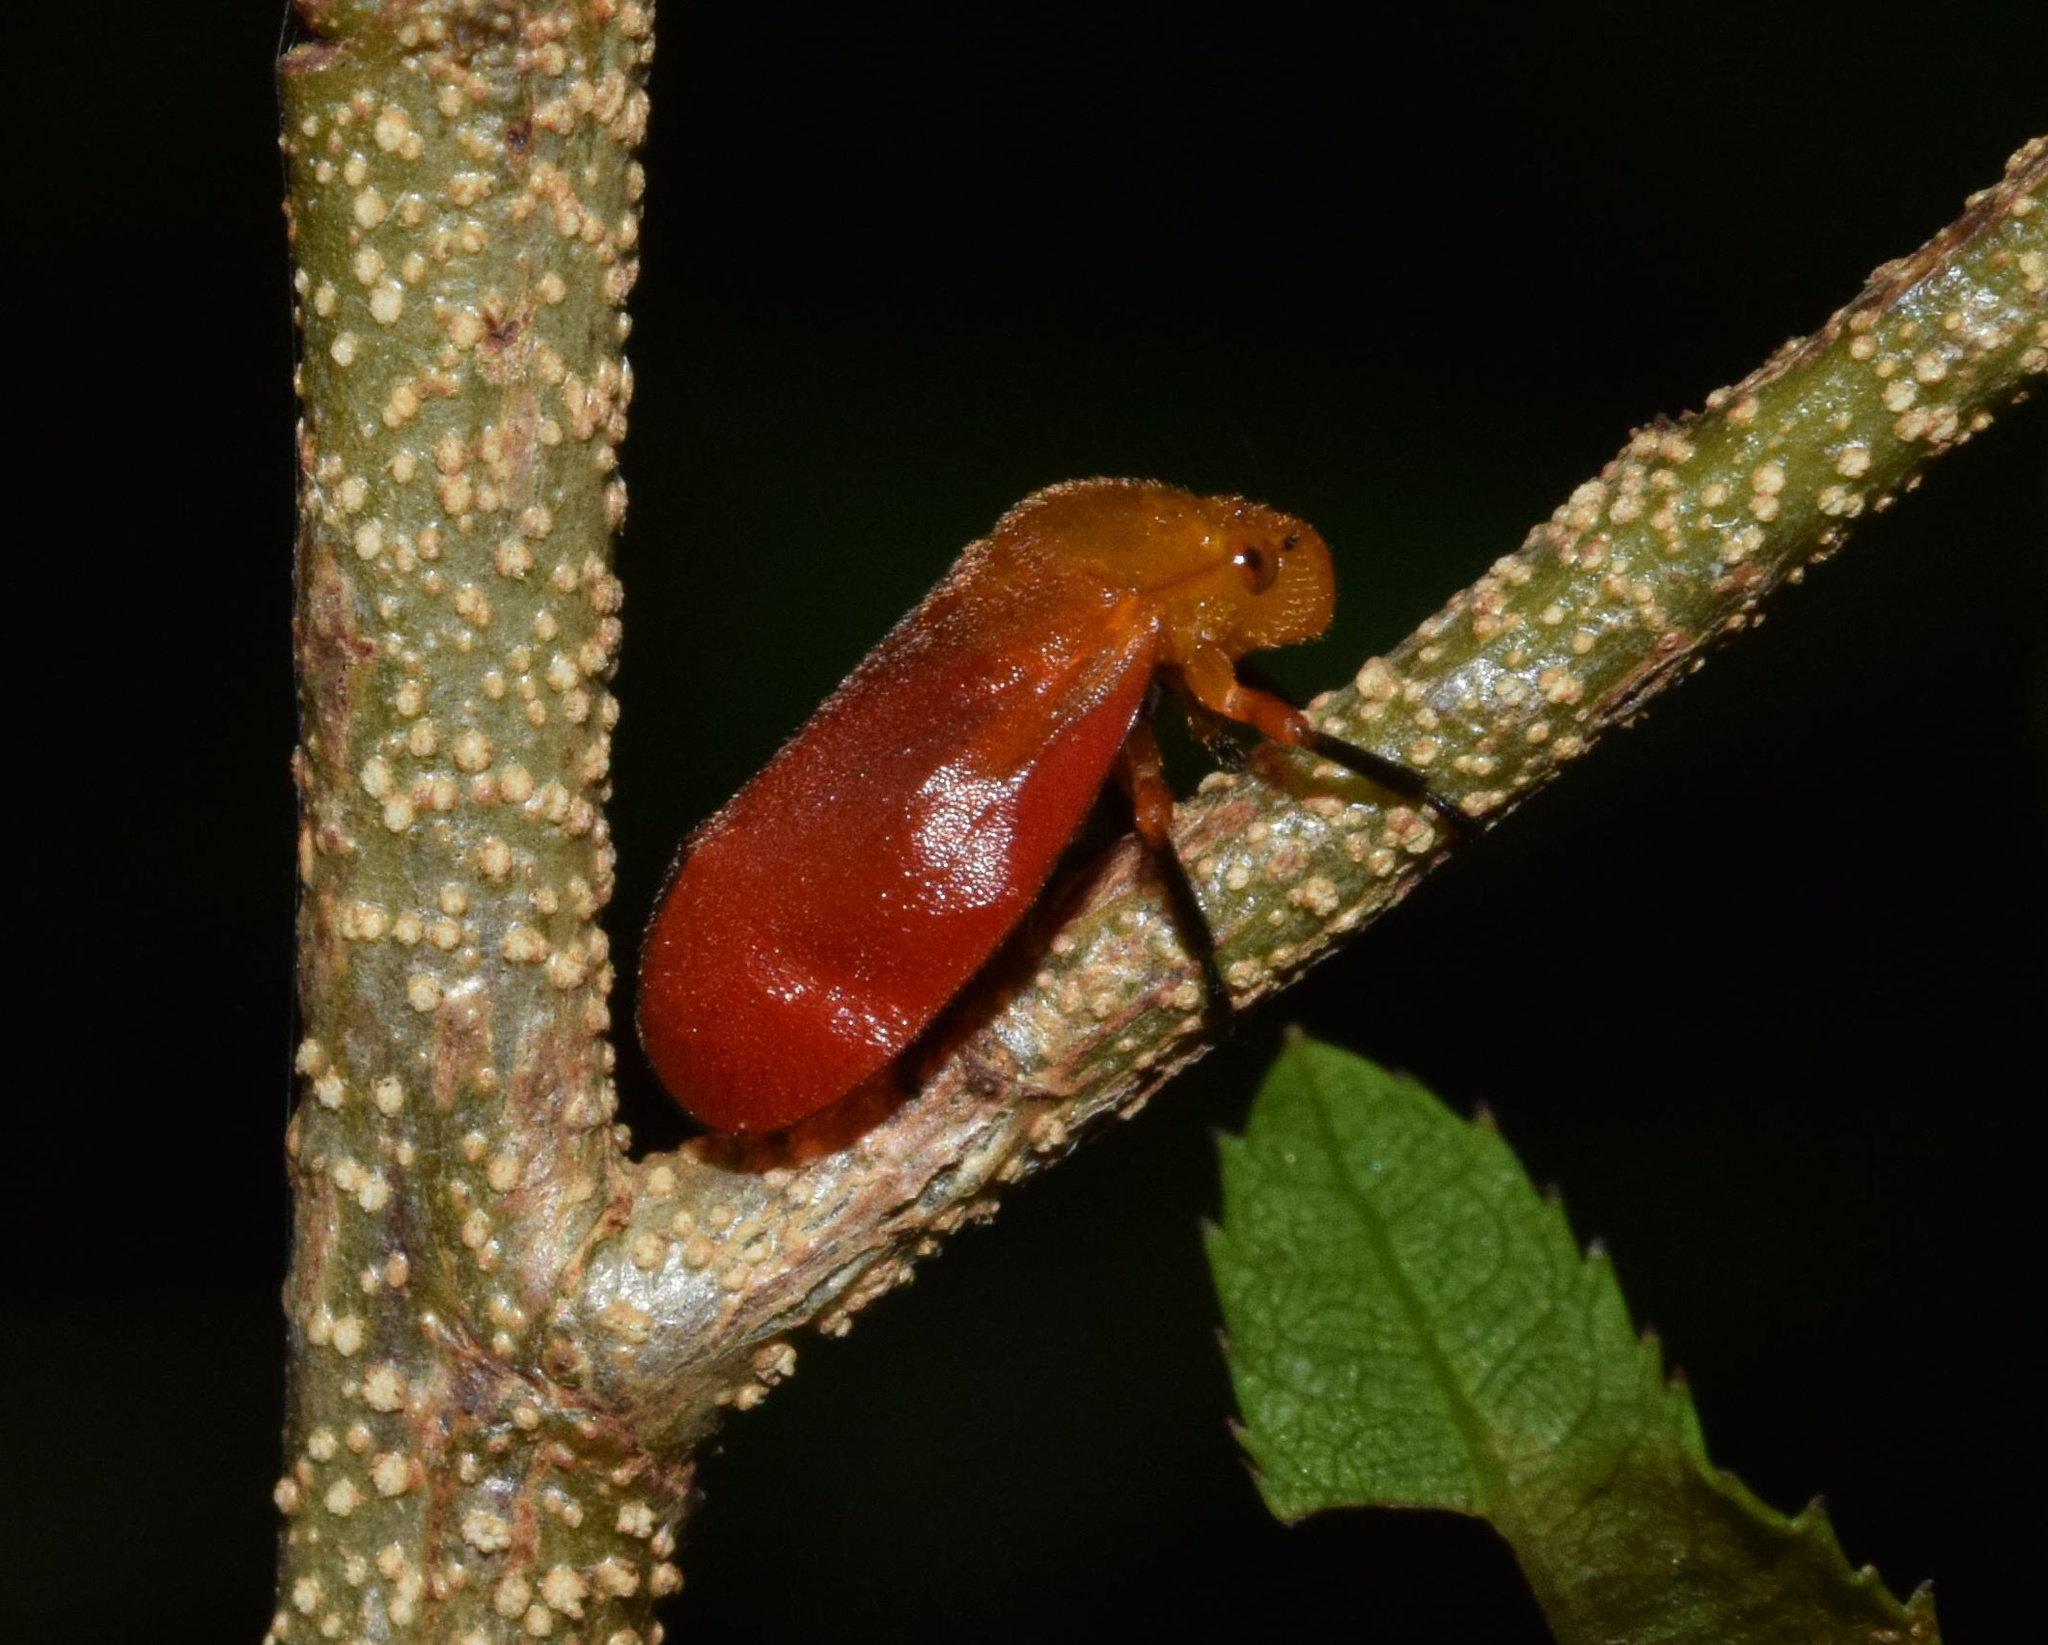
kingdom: Animalia
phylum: Arthropoda
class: Insecta
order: Hemiptera
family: Cercopidae
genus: Bandusia
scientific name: Bandusia rubicunda
